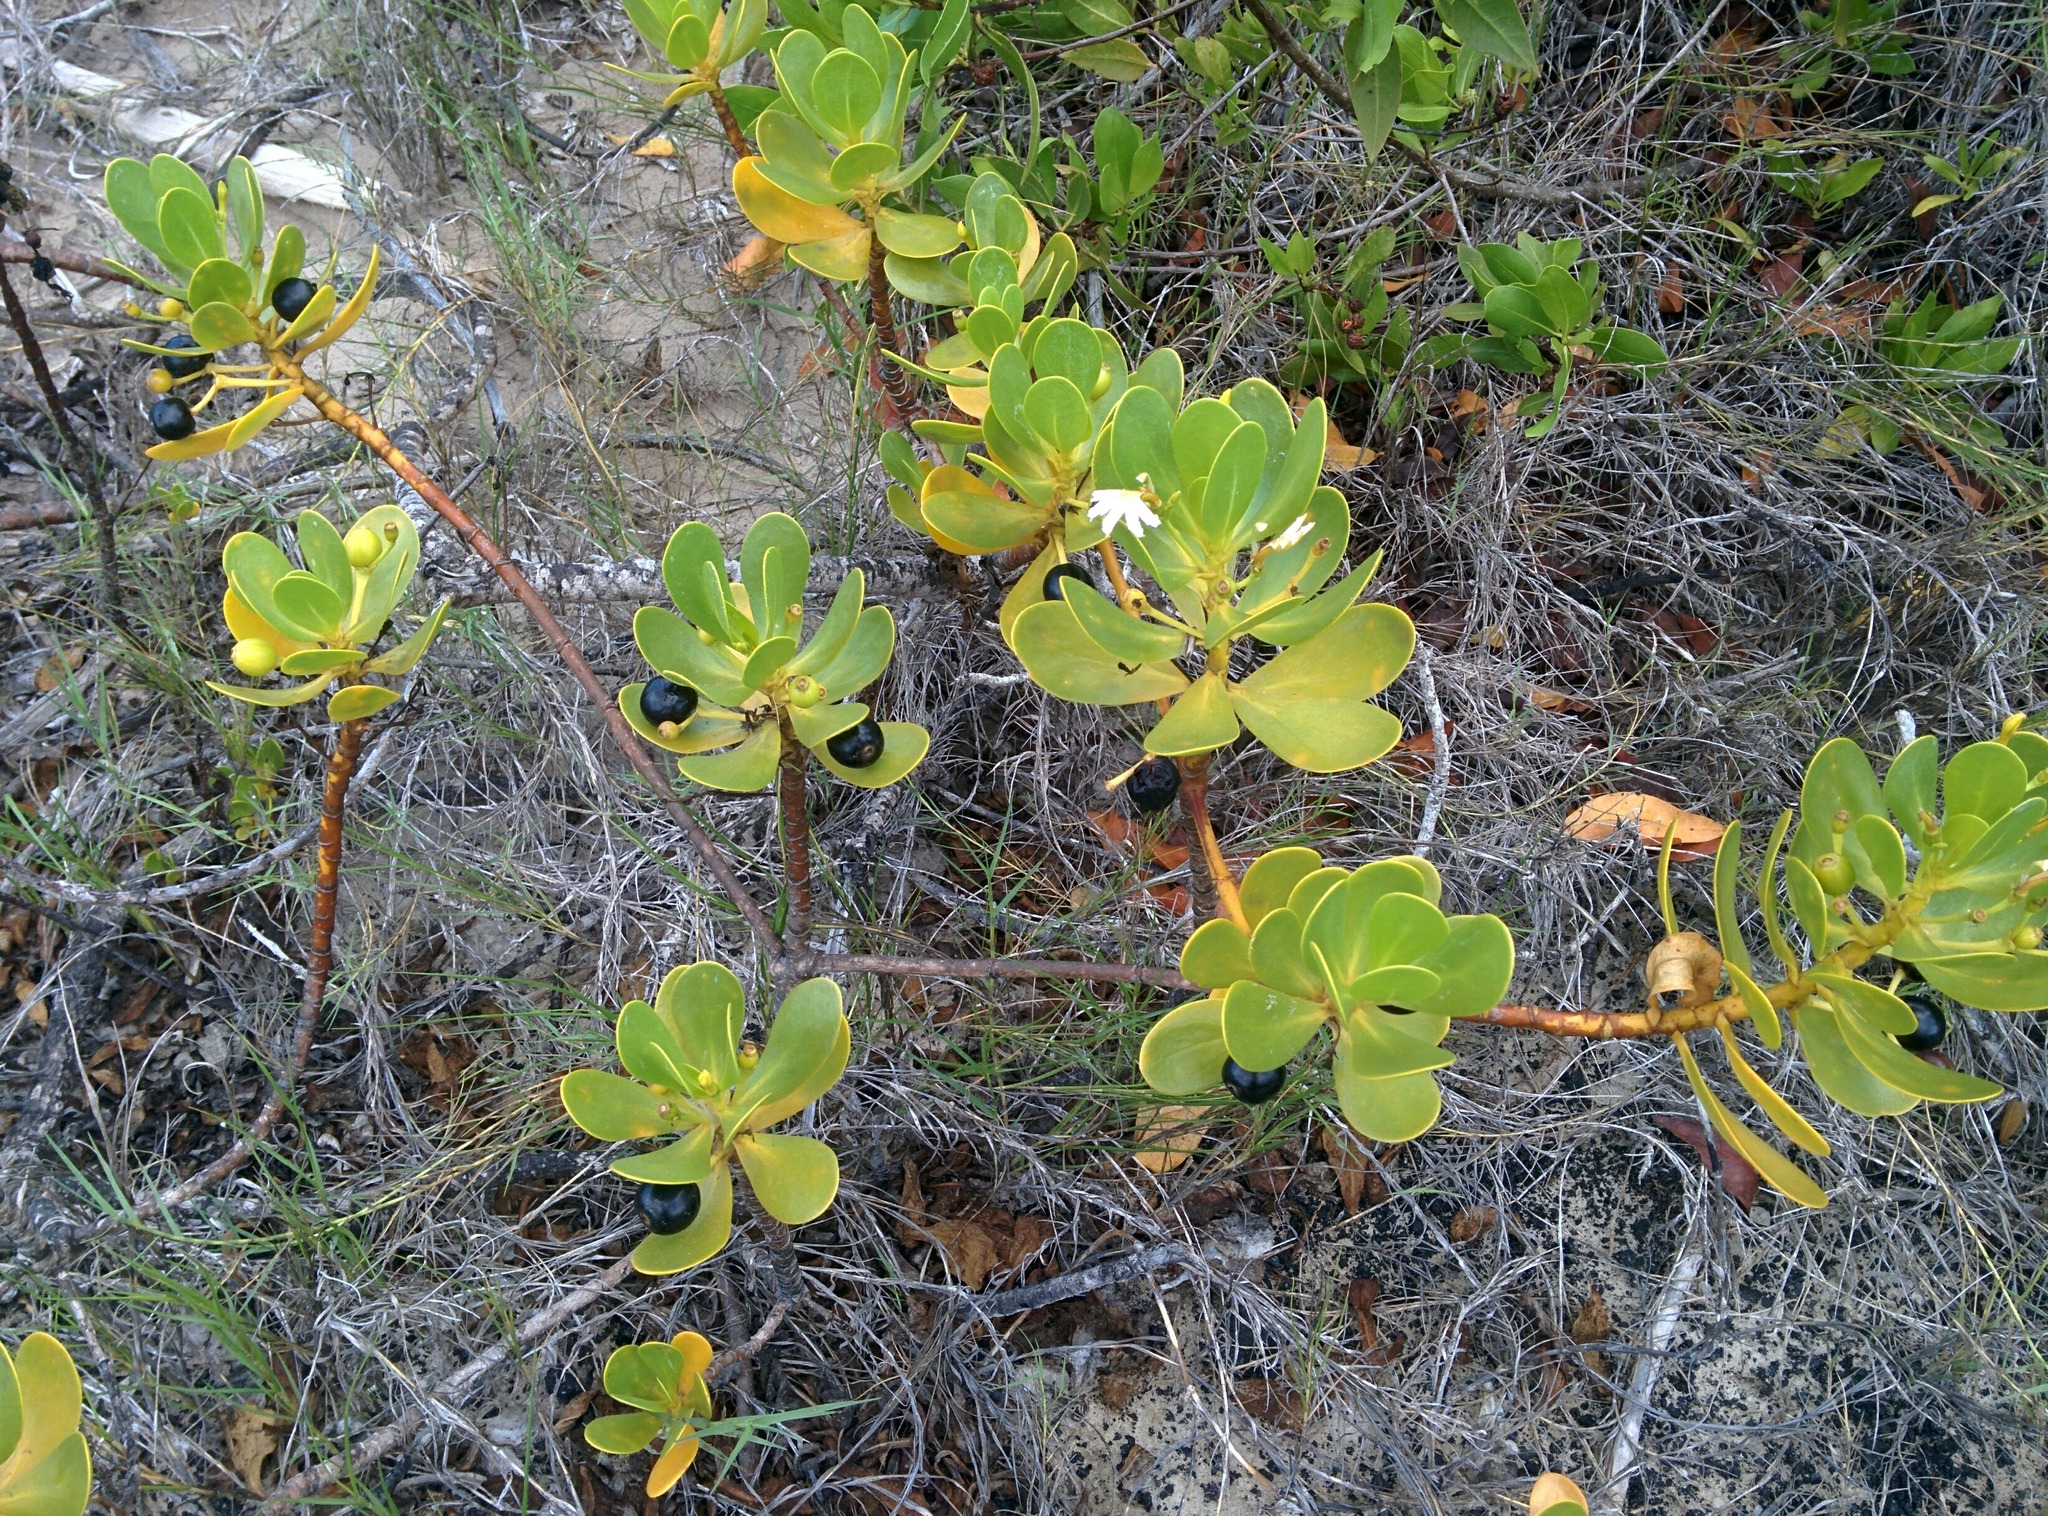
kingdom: Plantae
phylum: Tracheophyta
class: Magnoliopsida
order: Asterales
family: Goodeniaceae
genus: Scaevola
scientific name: Scaevola plumieri
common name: Gull feed
